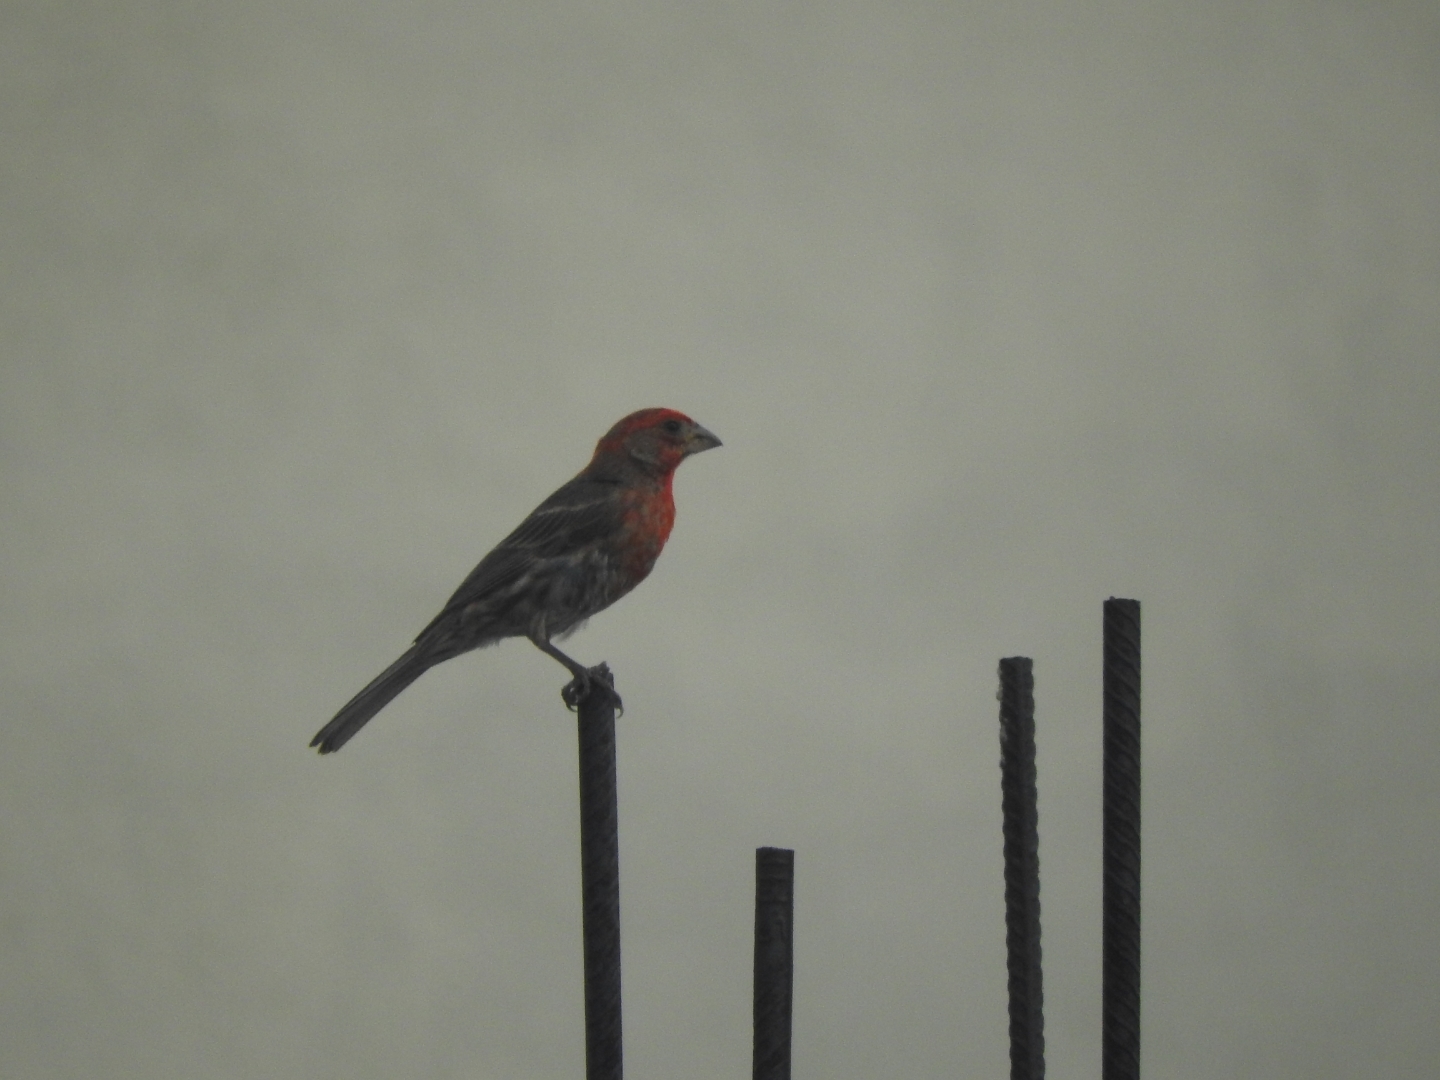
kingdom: Animalia
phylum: Chordata
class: Aves
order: Passeriformes
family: Fringillidae
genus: Haemorhous
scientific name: Haemorhous mexicanus
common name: House finch
